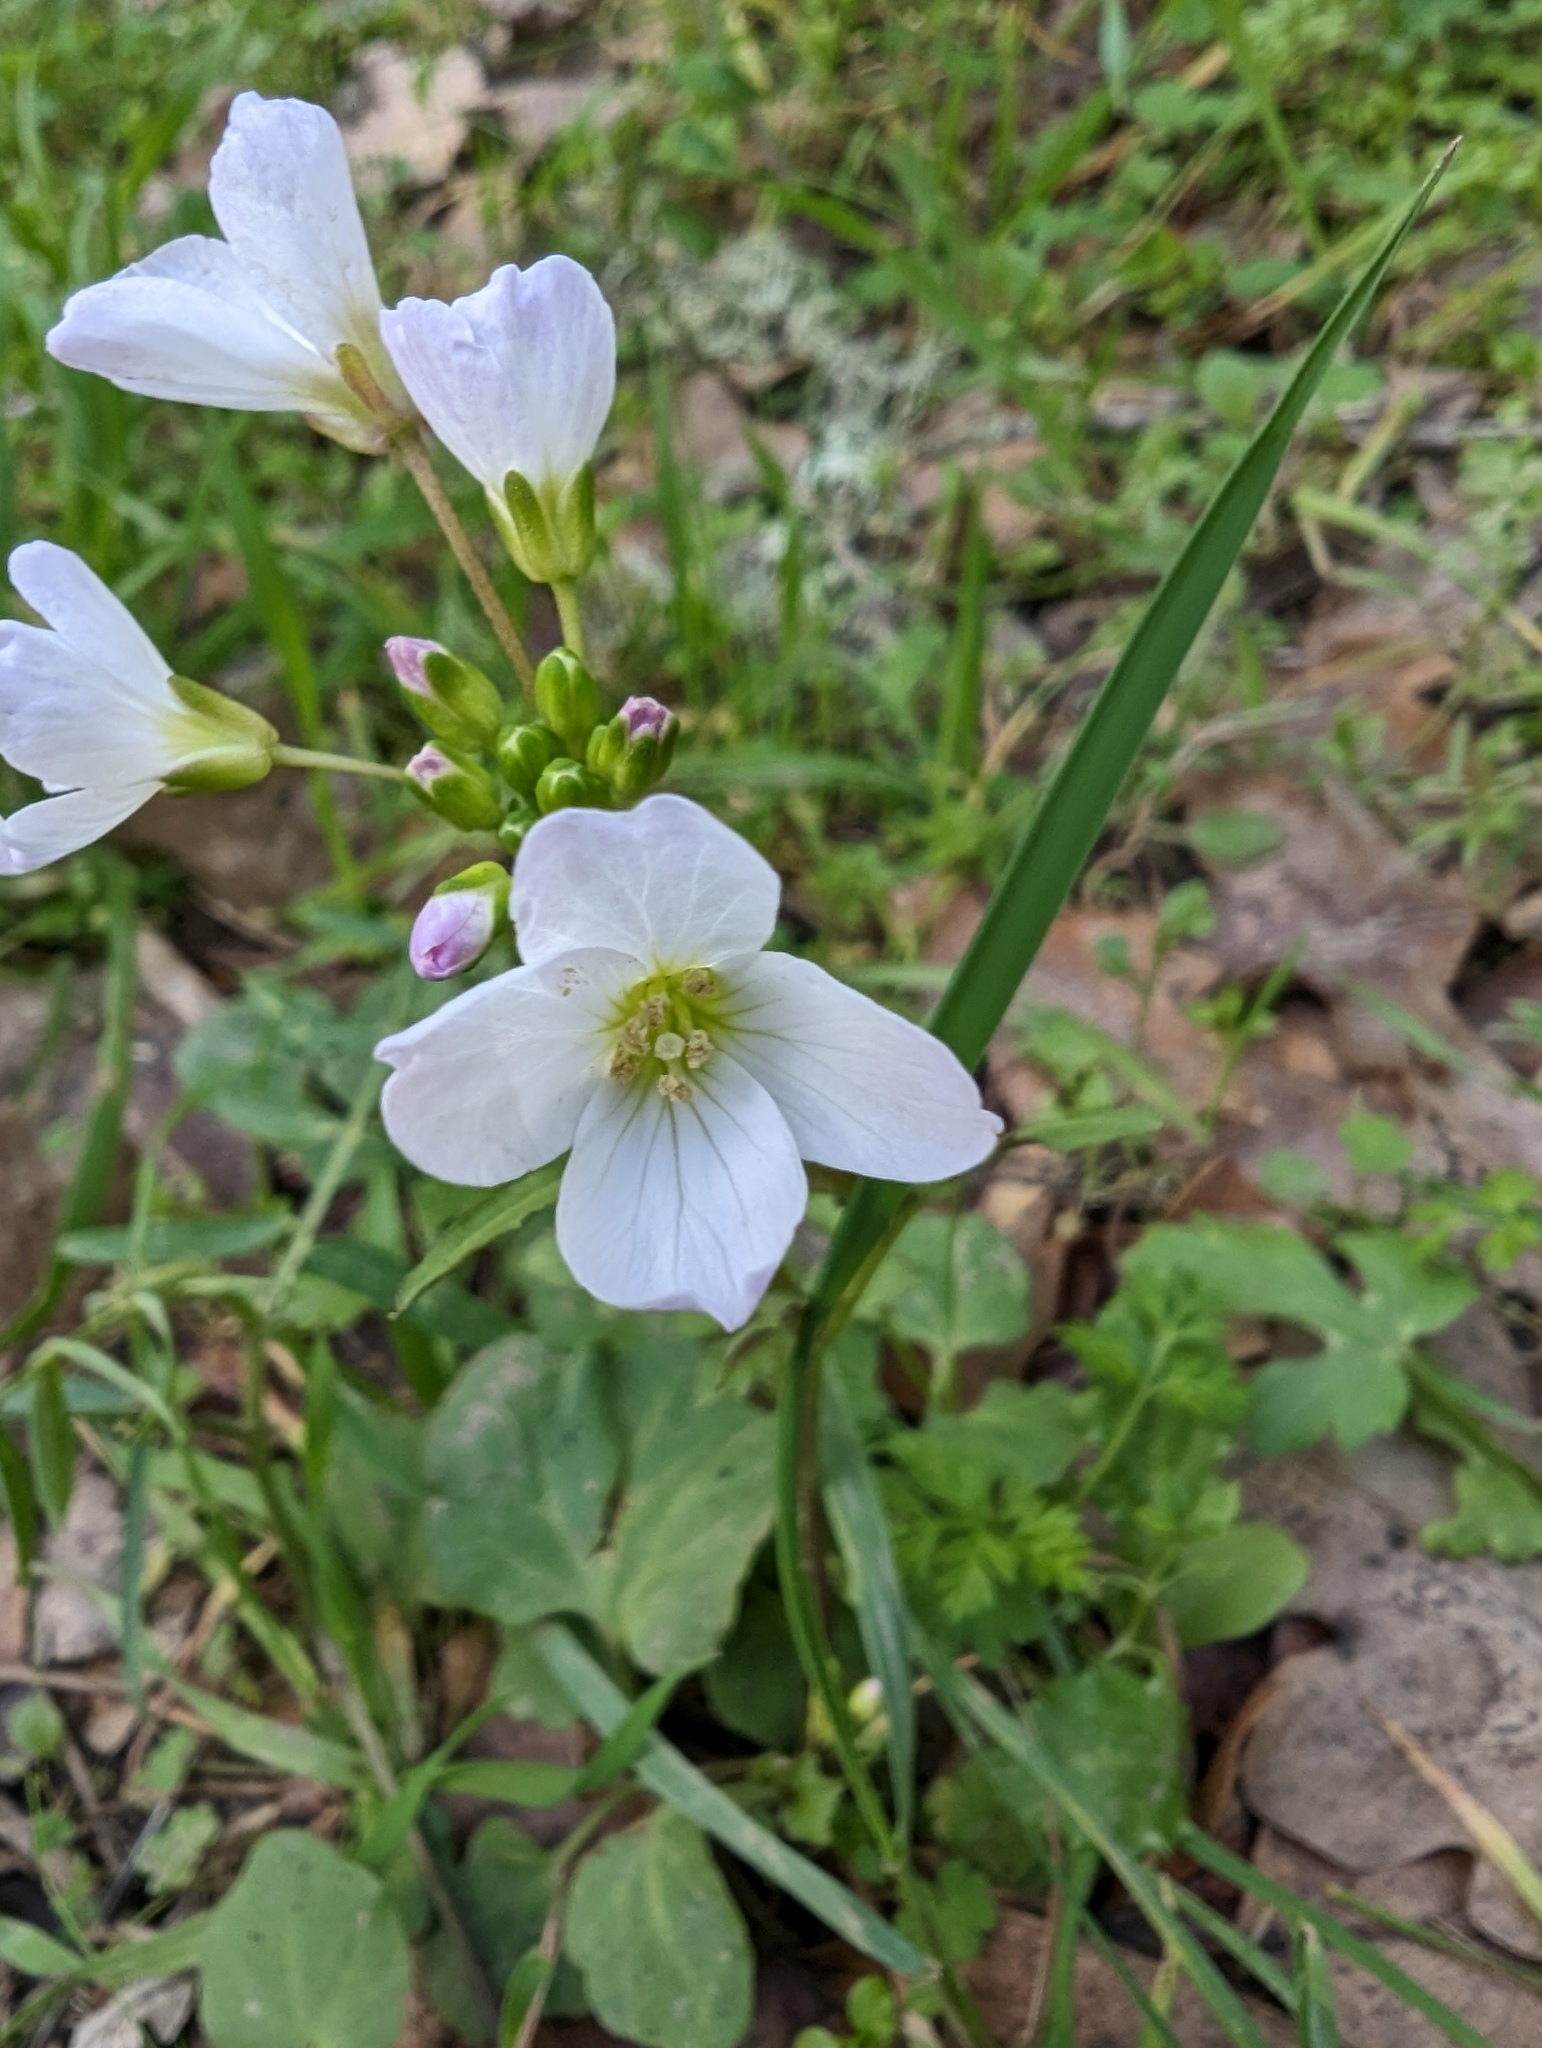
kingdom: Plantae
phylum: Tracheophyta
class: Magnoliopsida
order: Brassicales
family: Brassicaceae
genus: Cardamine
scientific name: Cardamine californica
